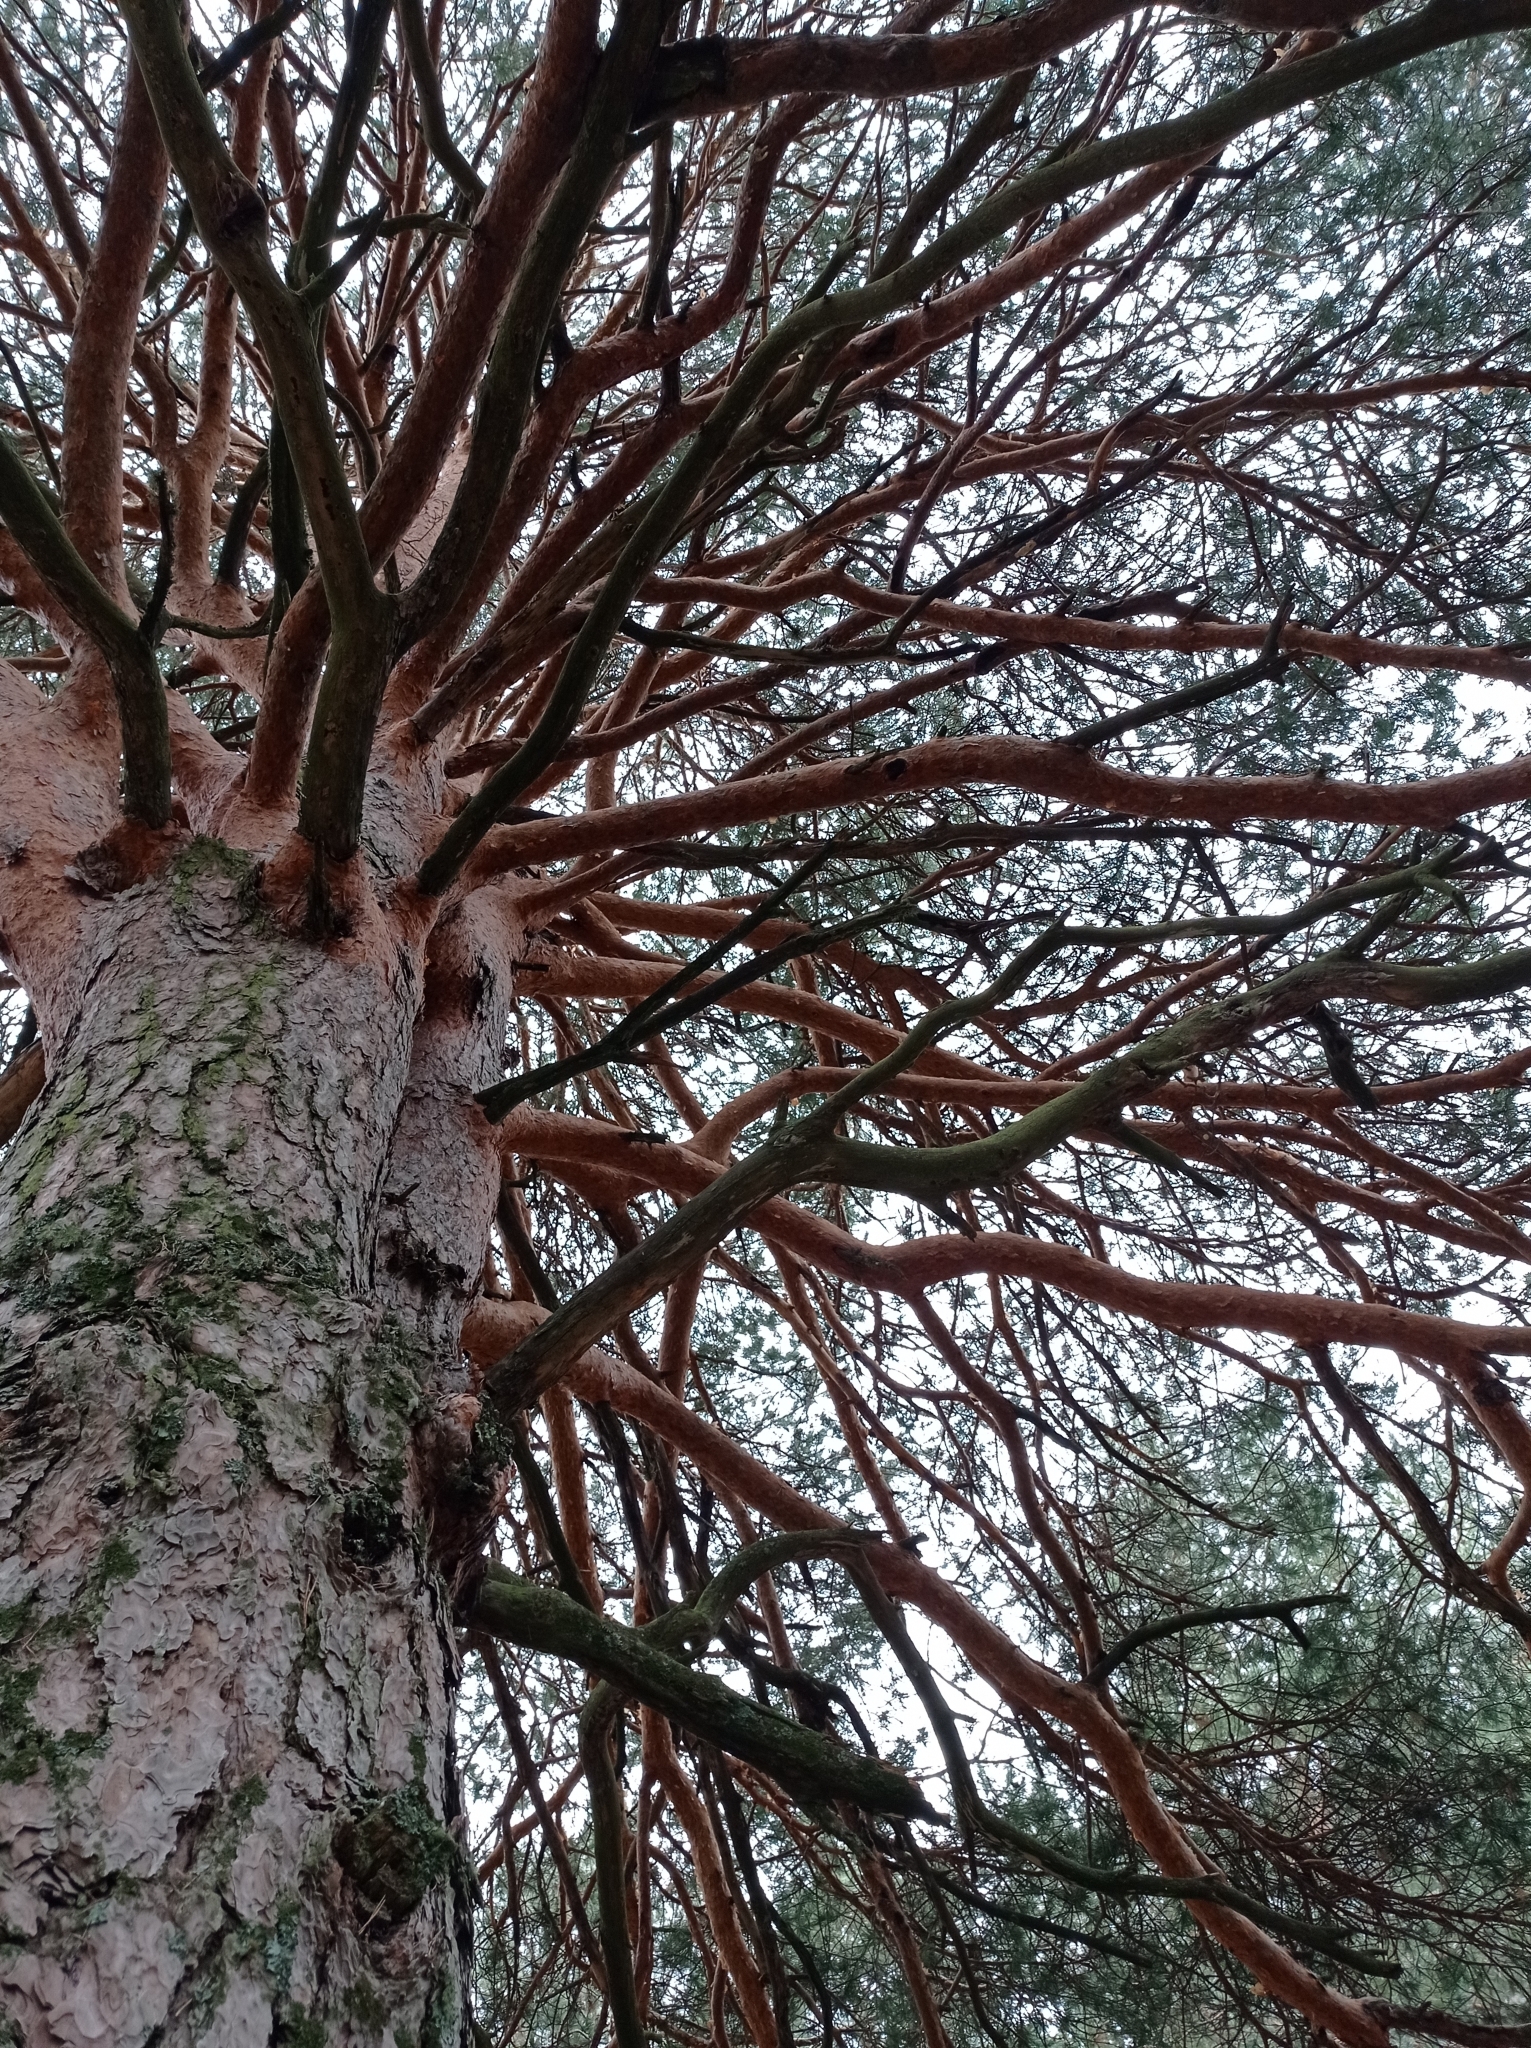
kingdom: Plantae
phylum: Tracheophyta
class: Pinopsida
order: Pinales
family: Pinaceae
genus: Pinus
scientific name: Pinus sylvestris
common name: Scots pine
